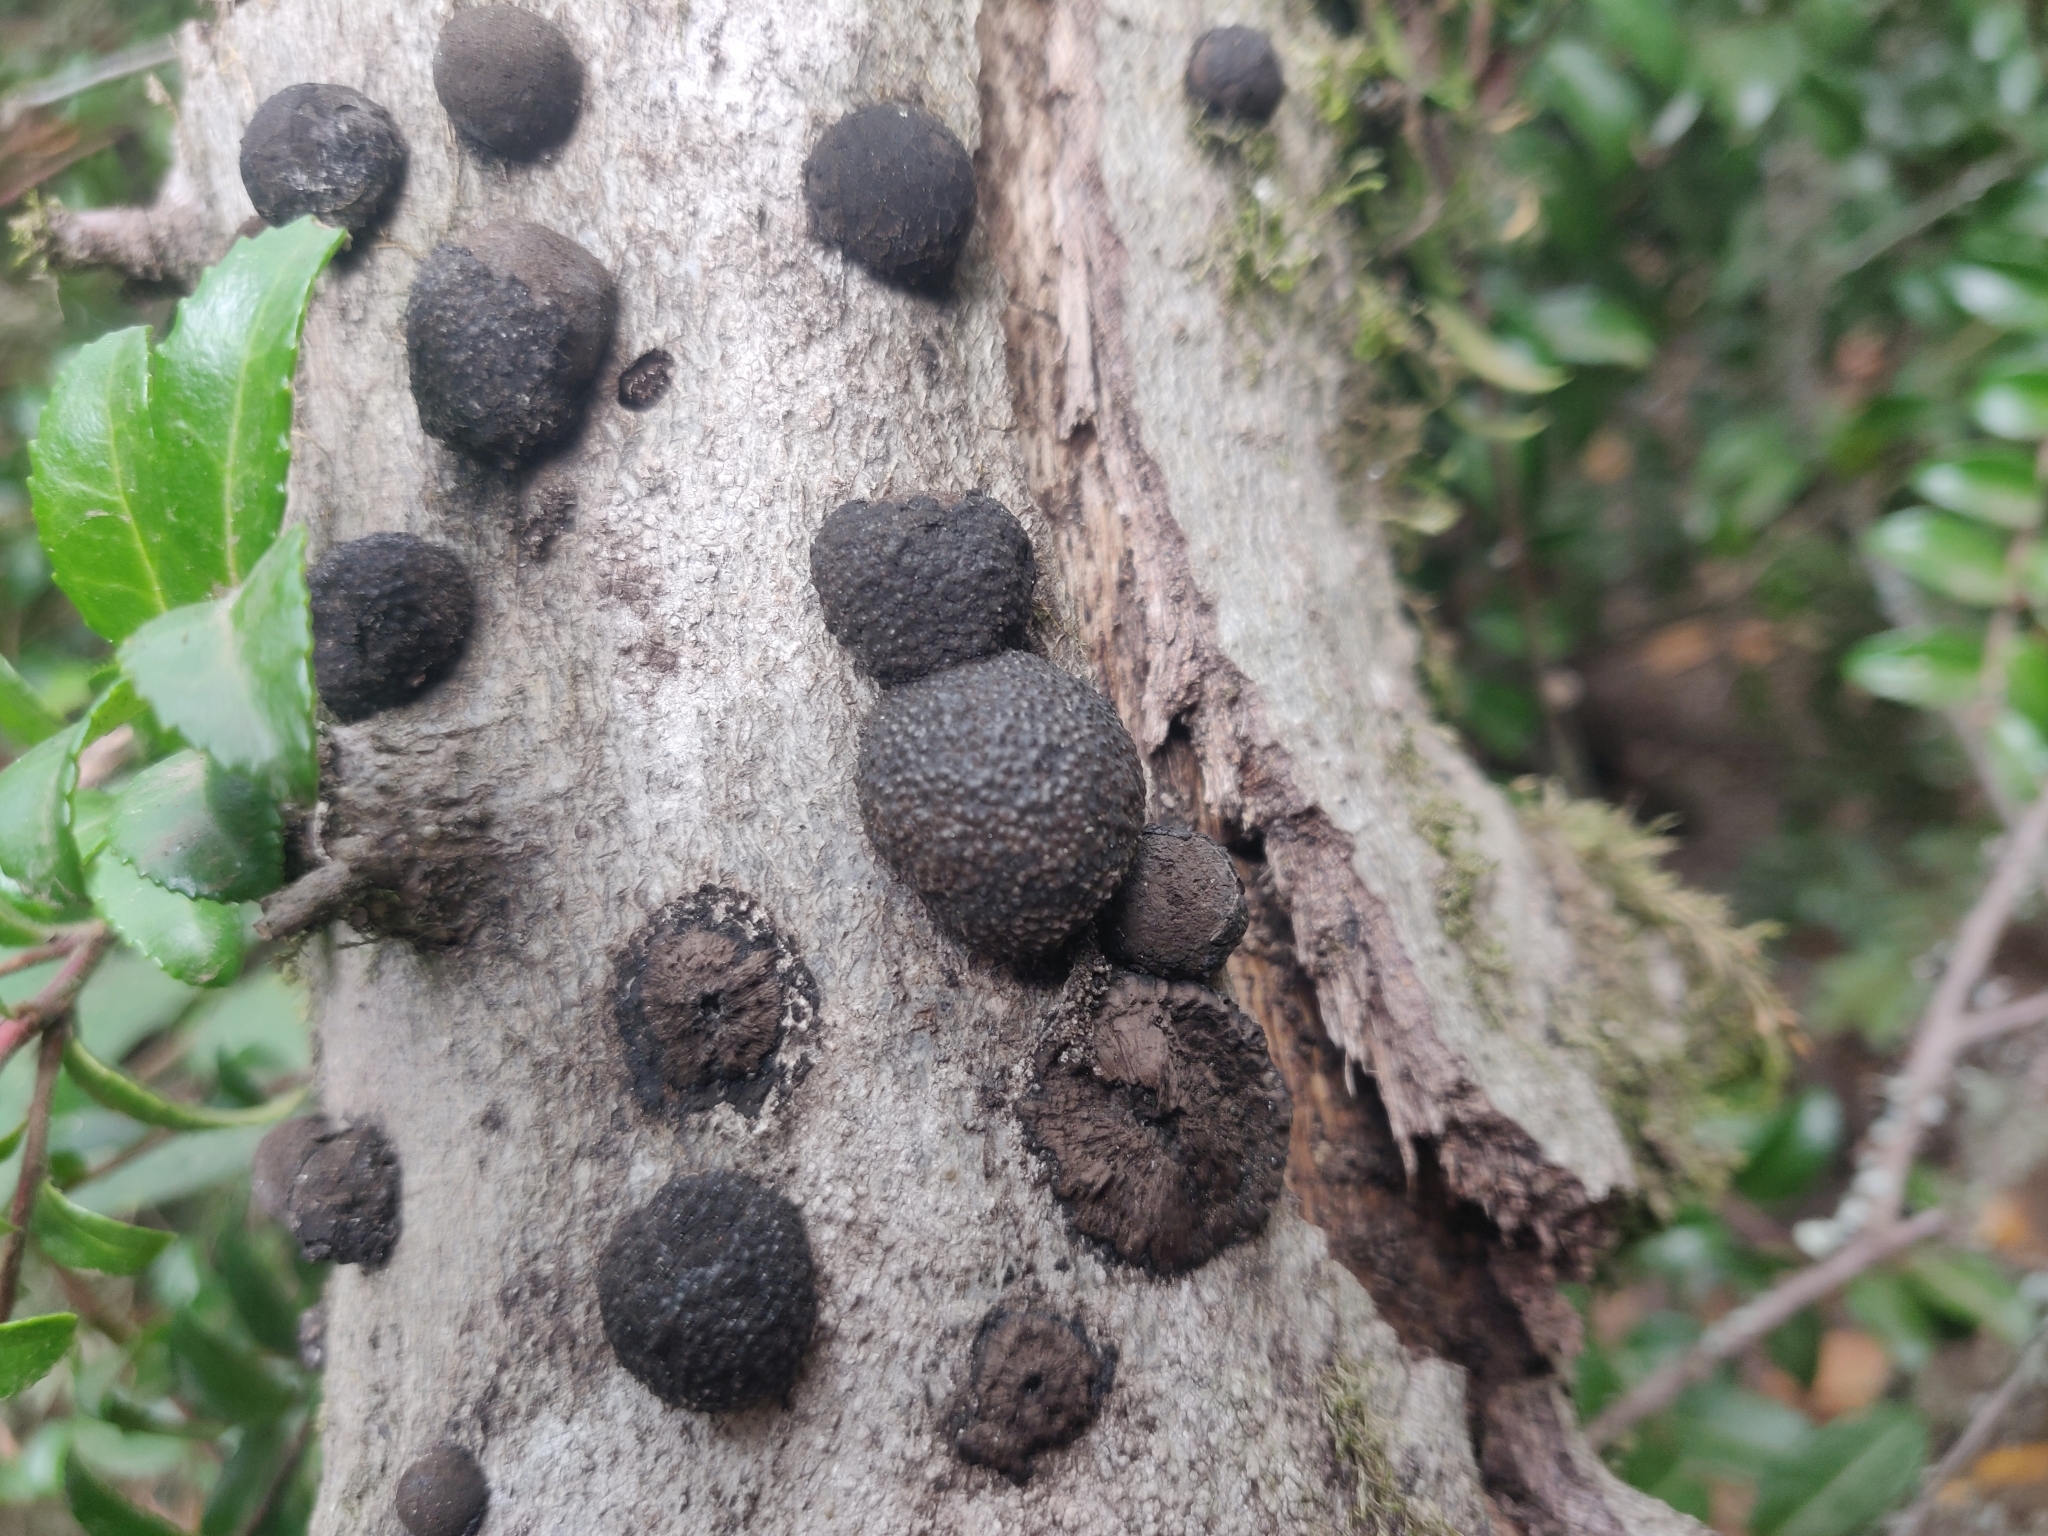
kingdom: Fungi
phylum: Ascomycota
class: Sordariomycetes
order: Xylariales
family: Hypoxylaceae
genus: Annulohypoxylon
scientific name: Annulohypoxylon thouarsianum
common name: Cramp balls
